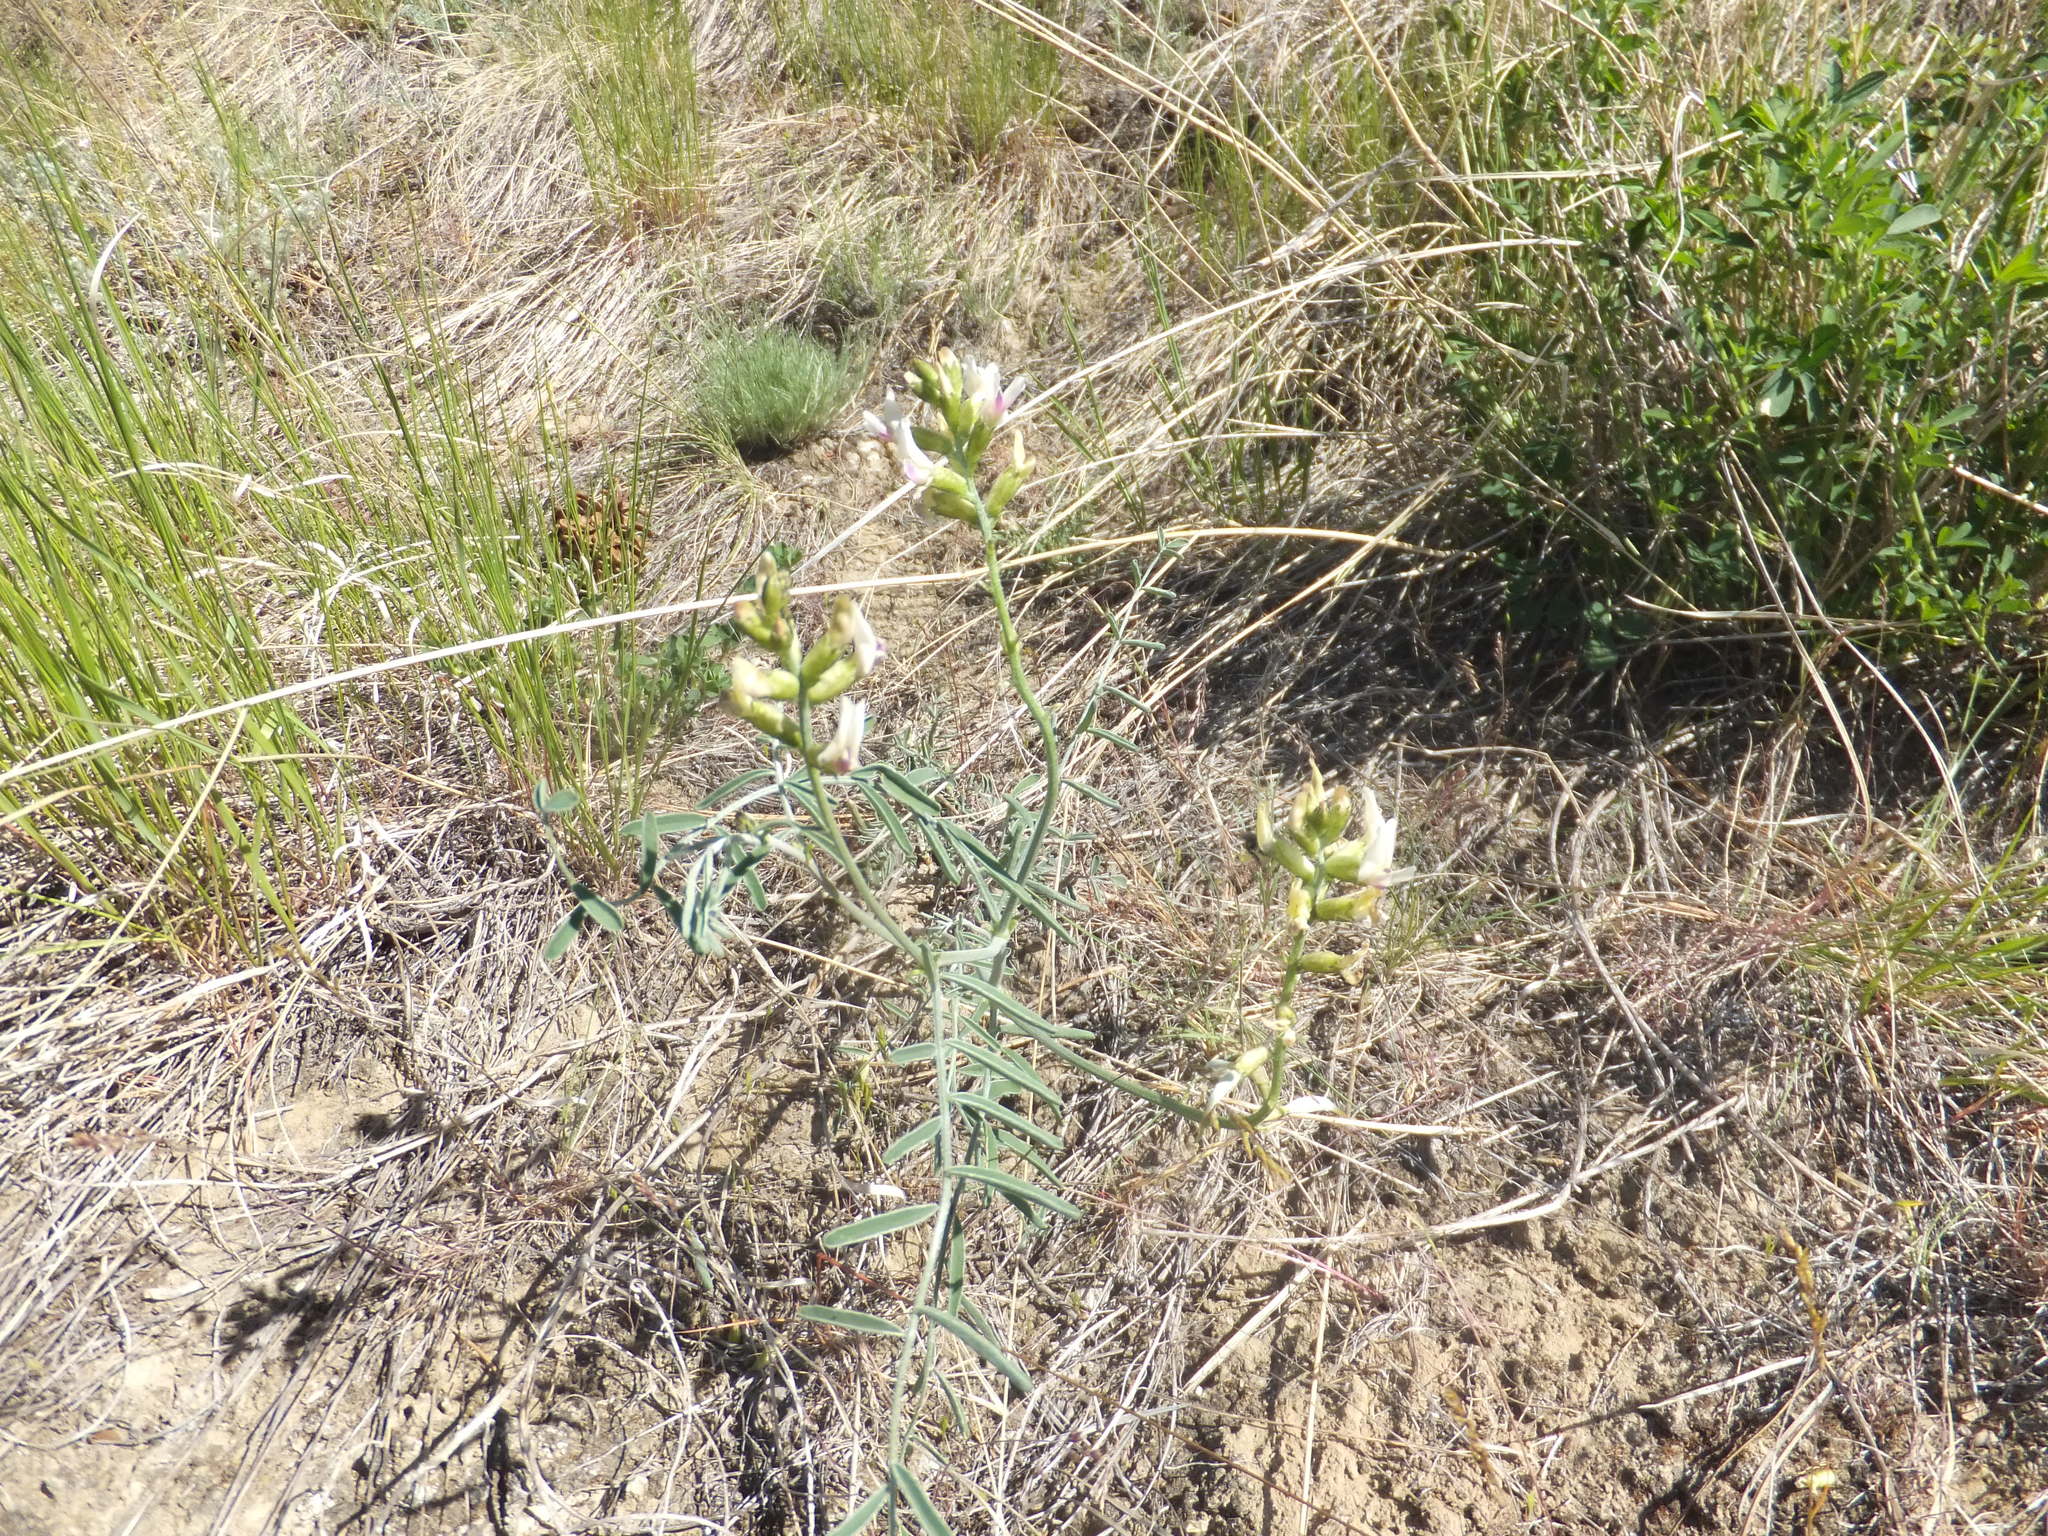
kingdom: Plantae
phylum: Tracheophyta
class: Magnoliopsida
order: Fabales
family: Fabaceae
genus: Astragalus
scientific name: Astragalus sclerocarpus
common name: The dalles milk-vetch
